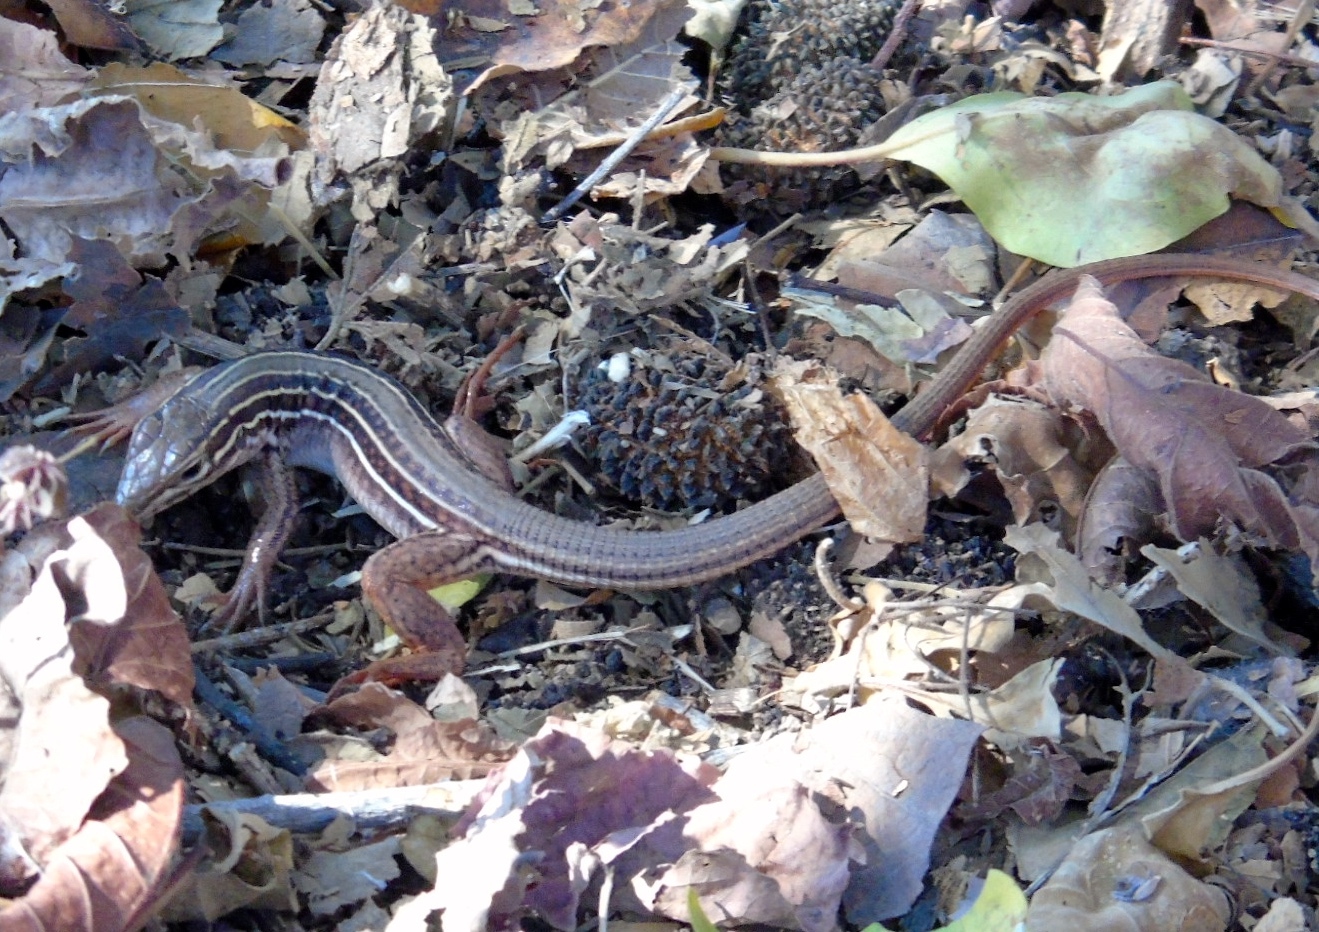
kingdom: Animalia
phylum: Chordata
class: Squamata
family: Teiidae
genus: Aspidoscelis
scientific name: Aspidoscelis costatus
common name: Western mexico whiptail
